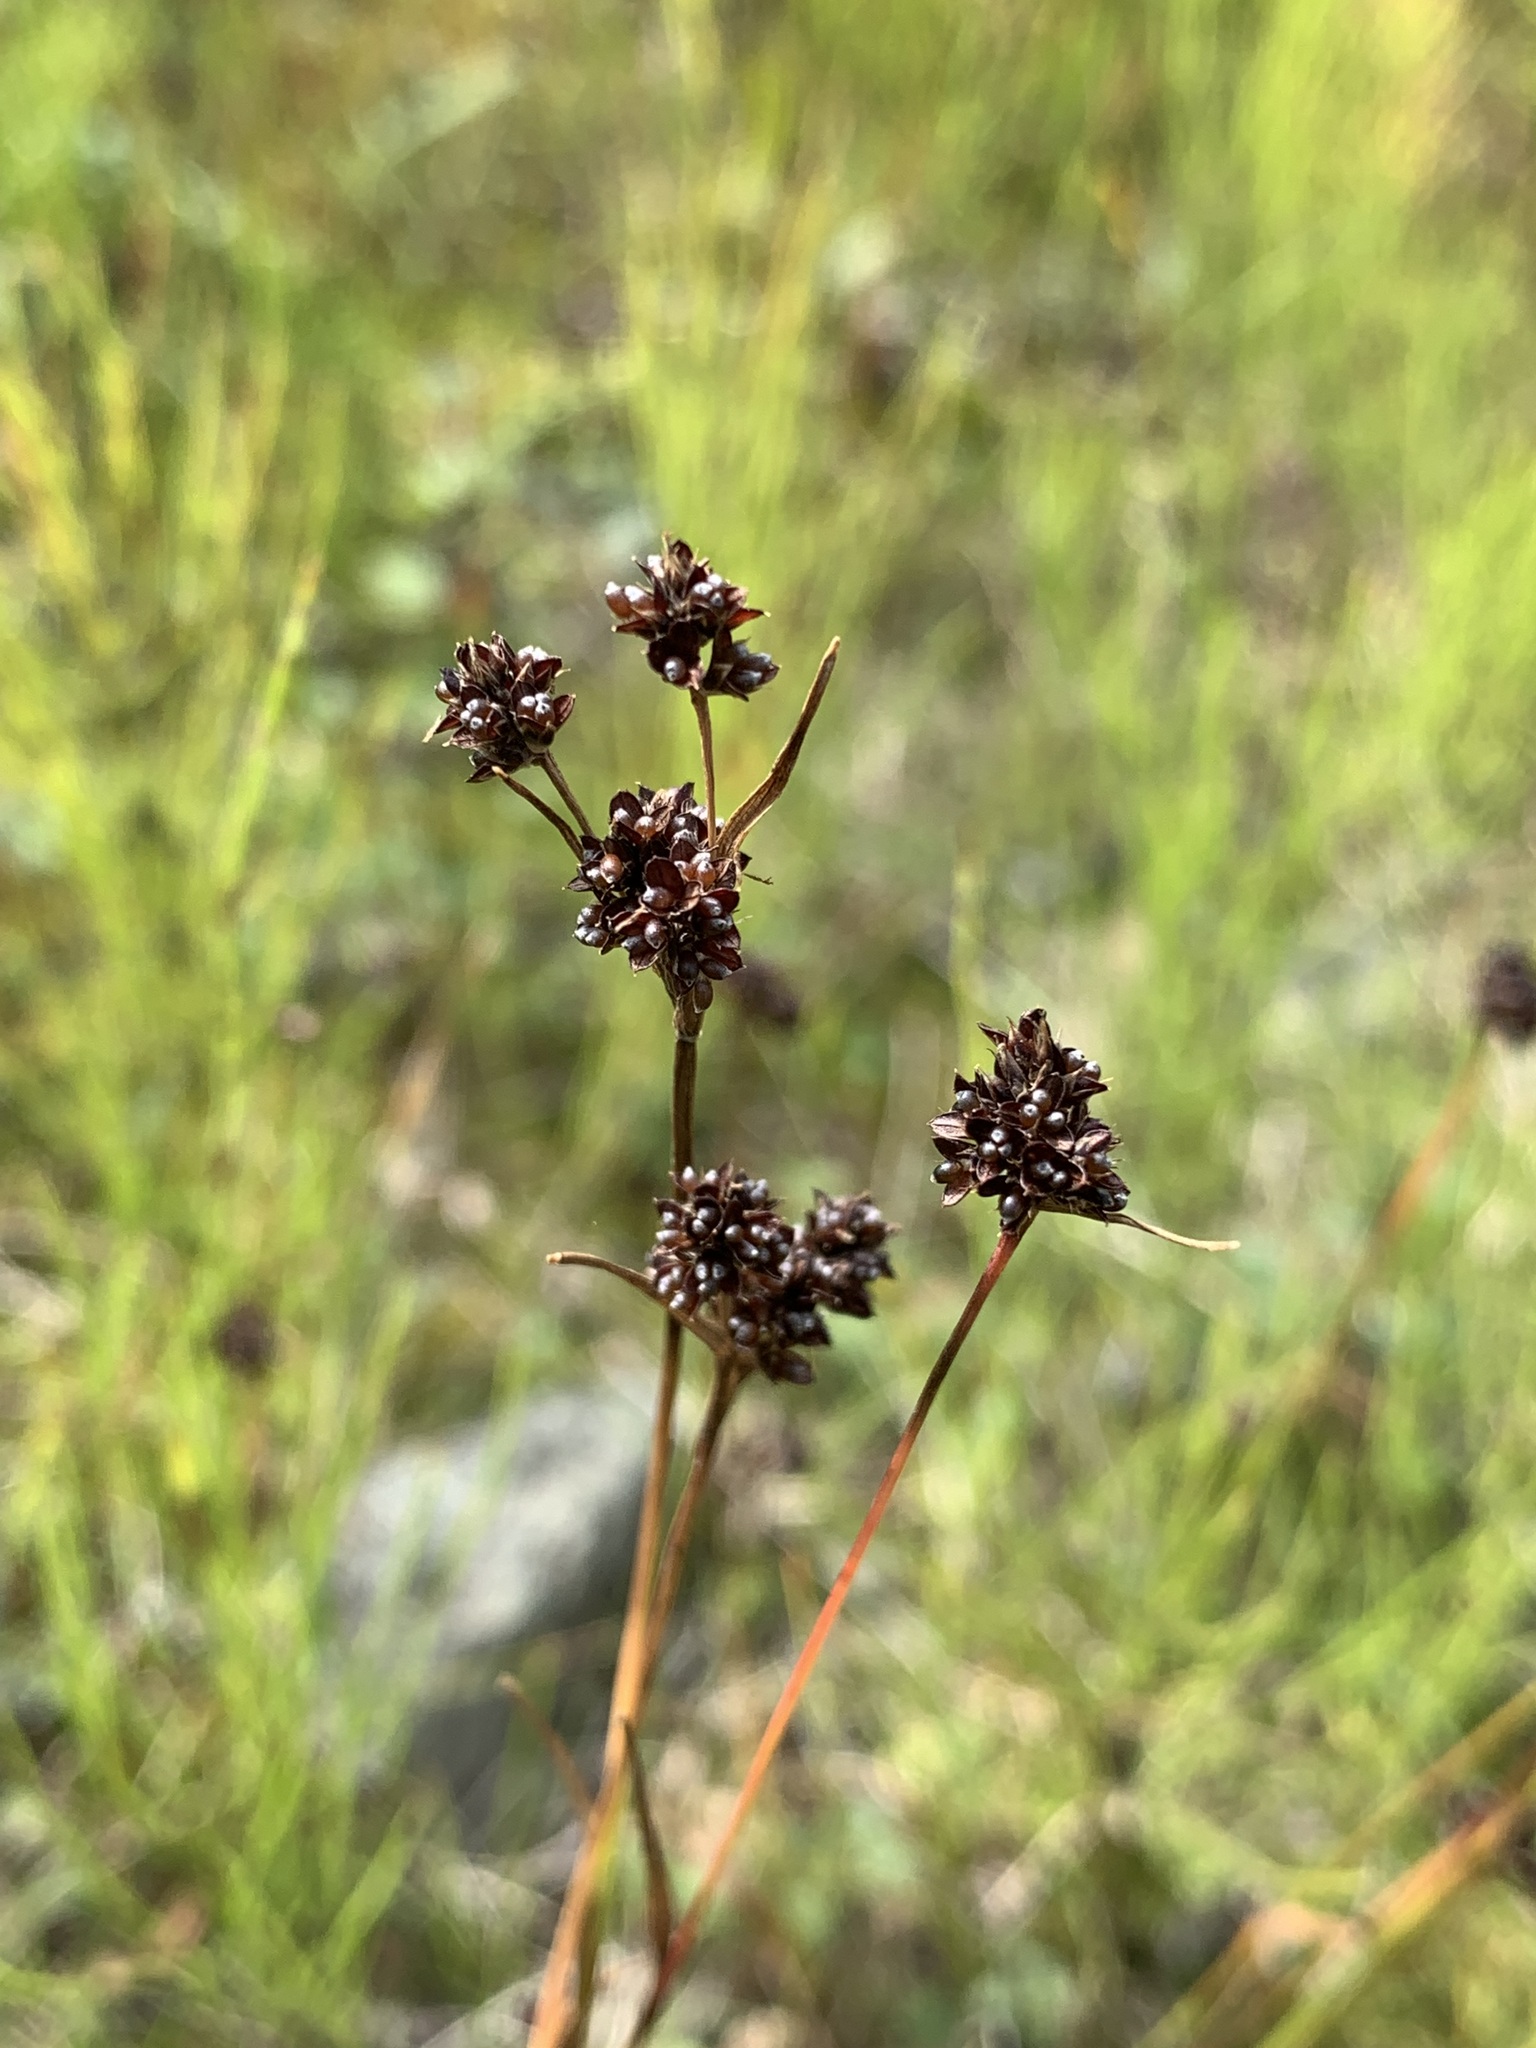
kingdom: Plantae
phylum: Tracheophyta
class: Liliopsida
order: Poales
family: Juncaceae
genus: Luzula
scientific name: Luzula multiflora
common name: Heath wood-rush
